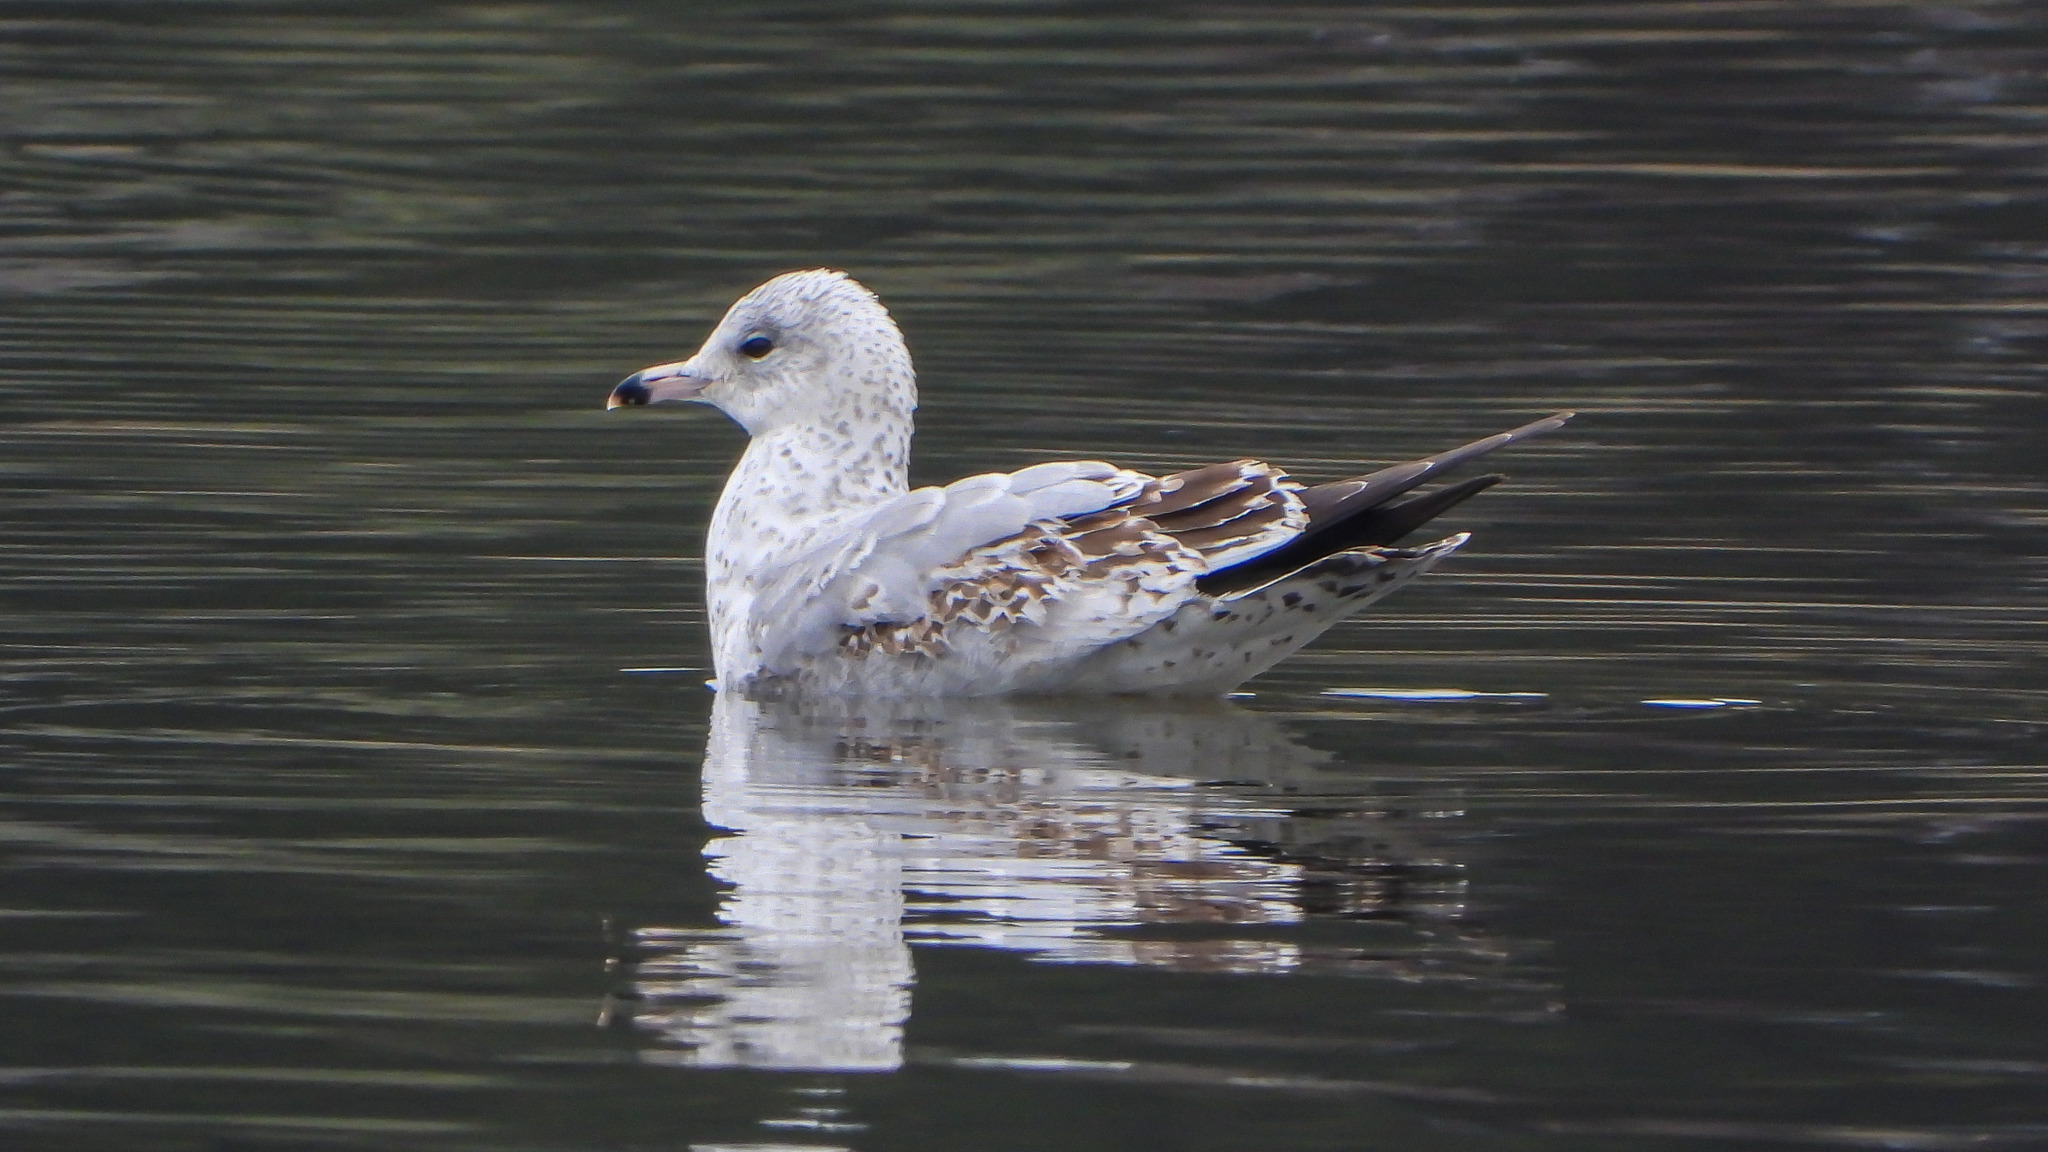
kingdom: Animalia
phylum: Chordata
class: Aves
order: Charadriiformes
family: Laridae
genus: Larus
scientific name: Larus delawarensis
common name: Ring-billed gull
